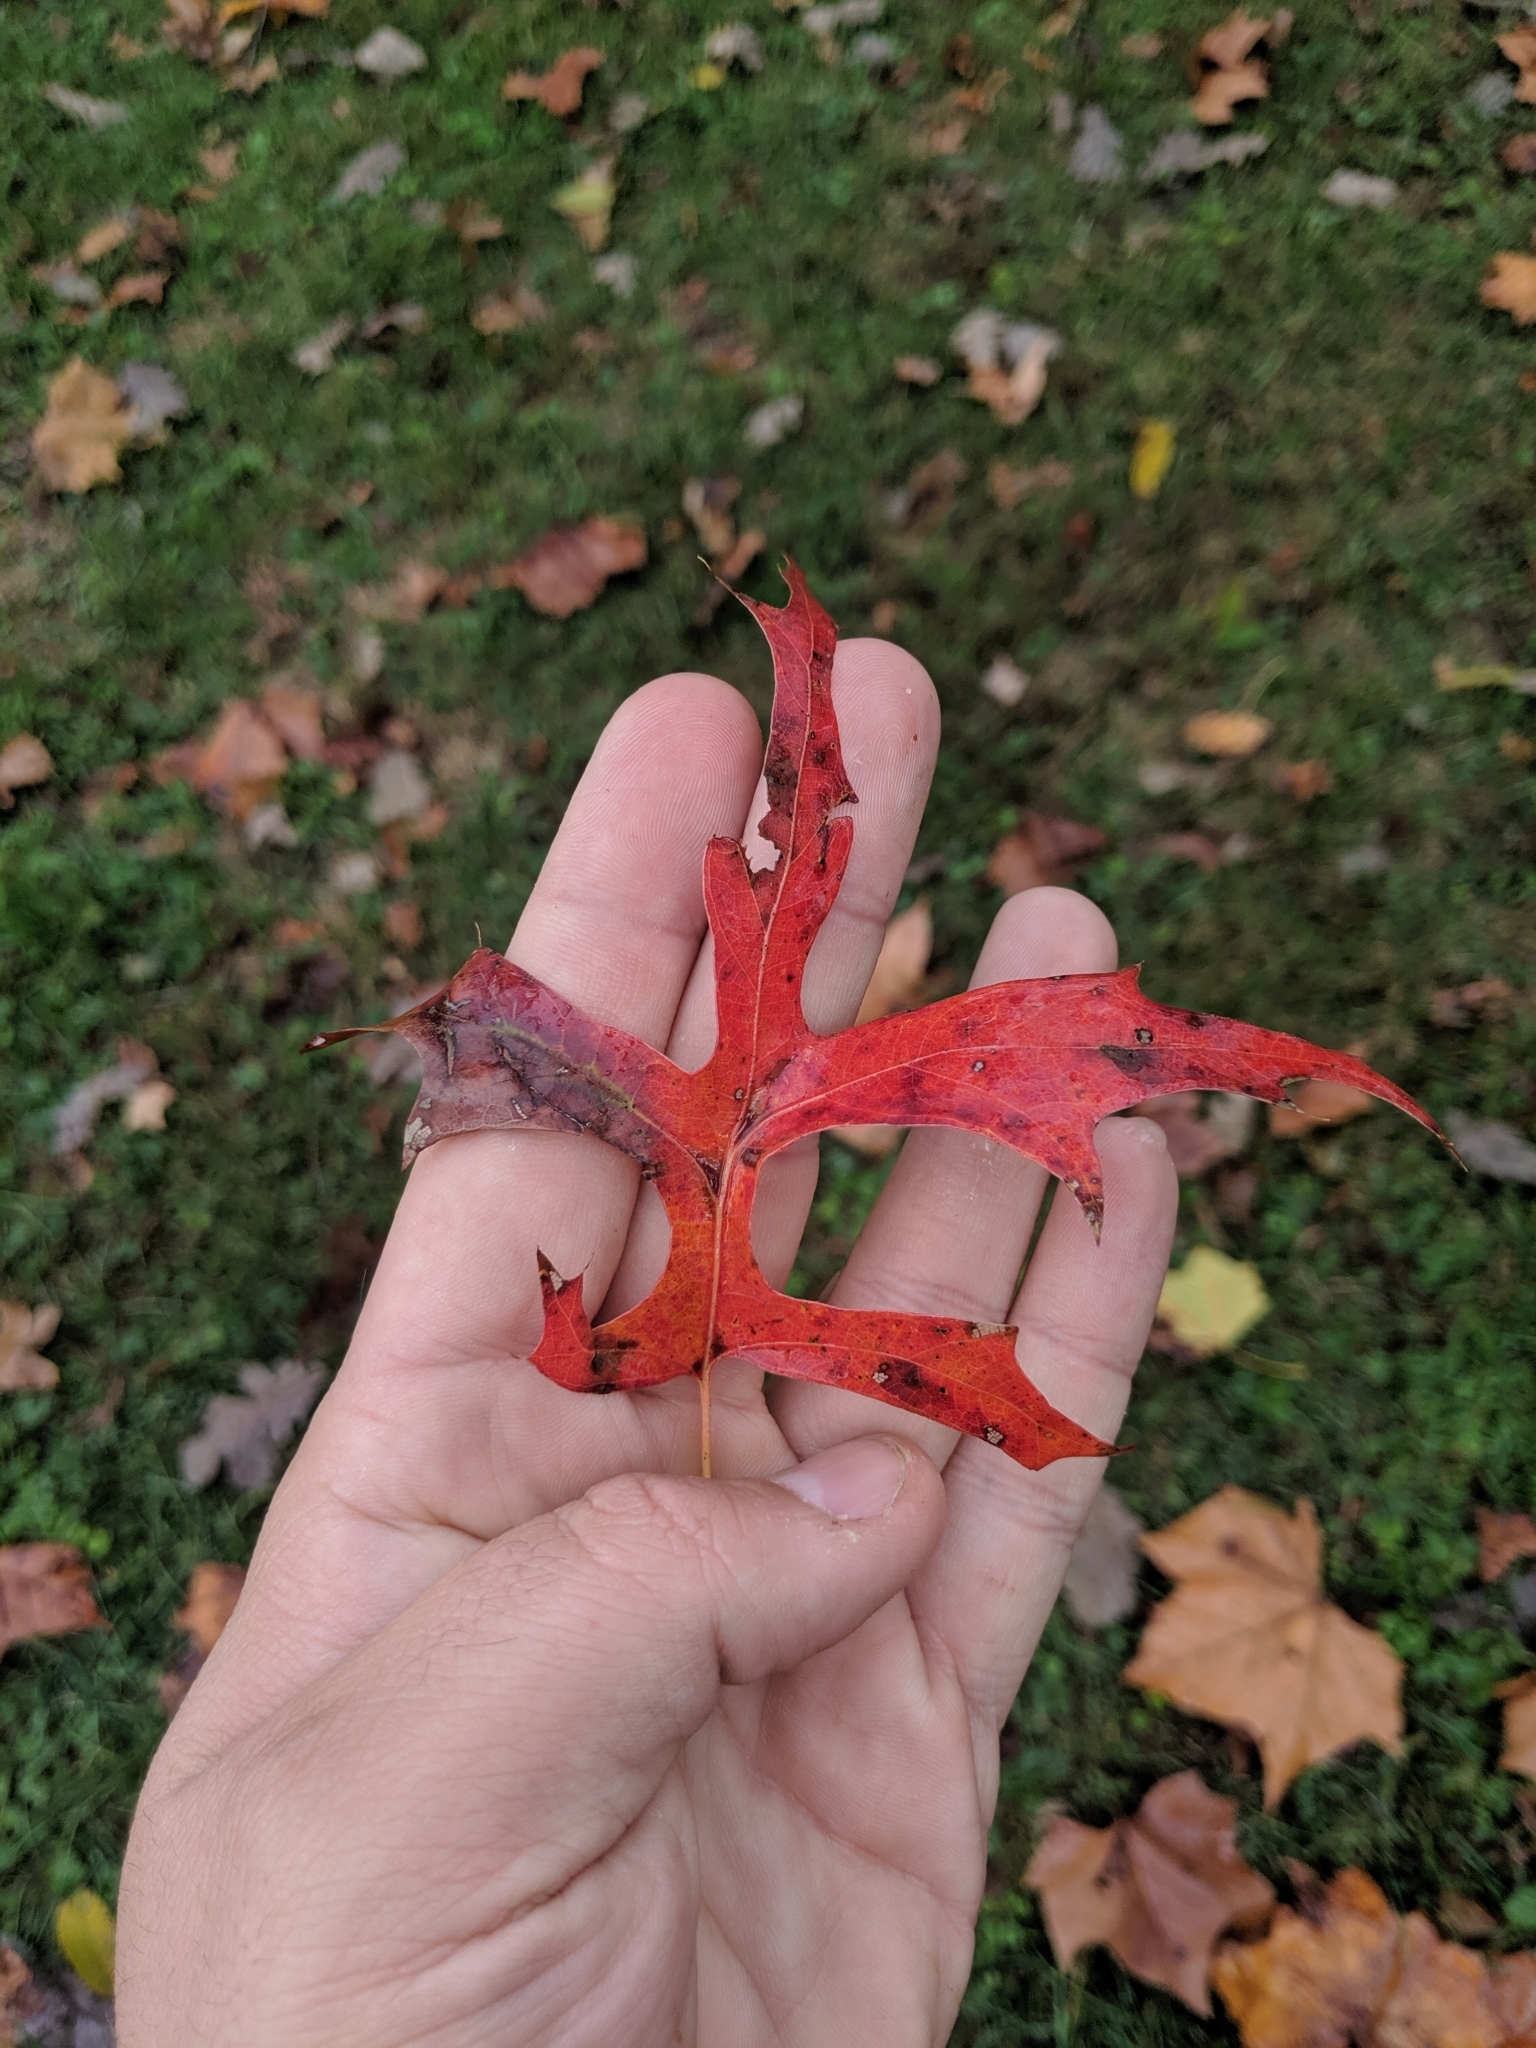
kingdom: Plantae
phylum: Tracheophyta
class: Magnoliopsida
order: Fagales
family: Fagaceae
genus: Quercus
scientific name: Quercus palustris
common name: Pin oak
